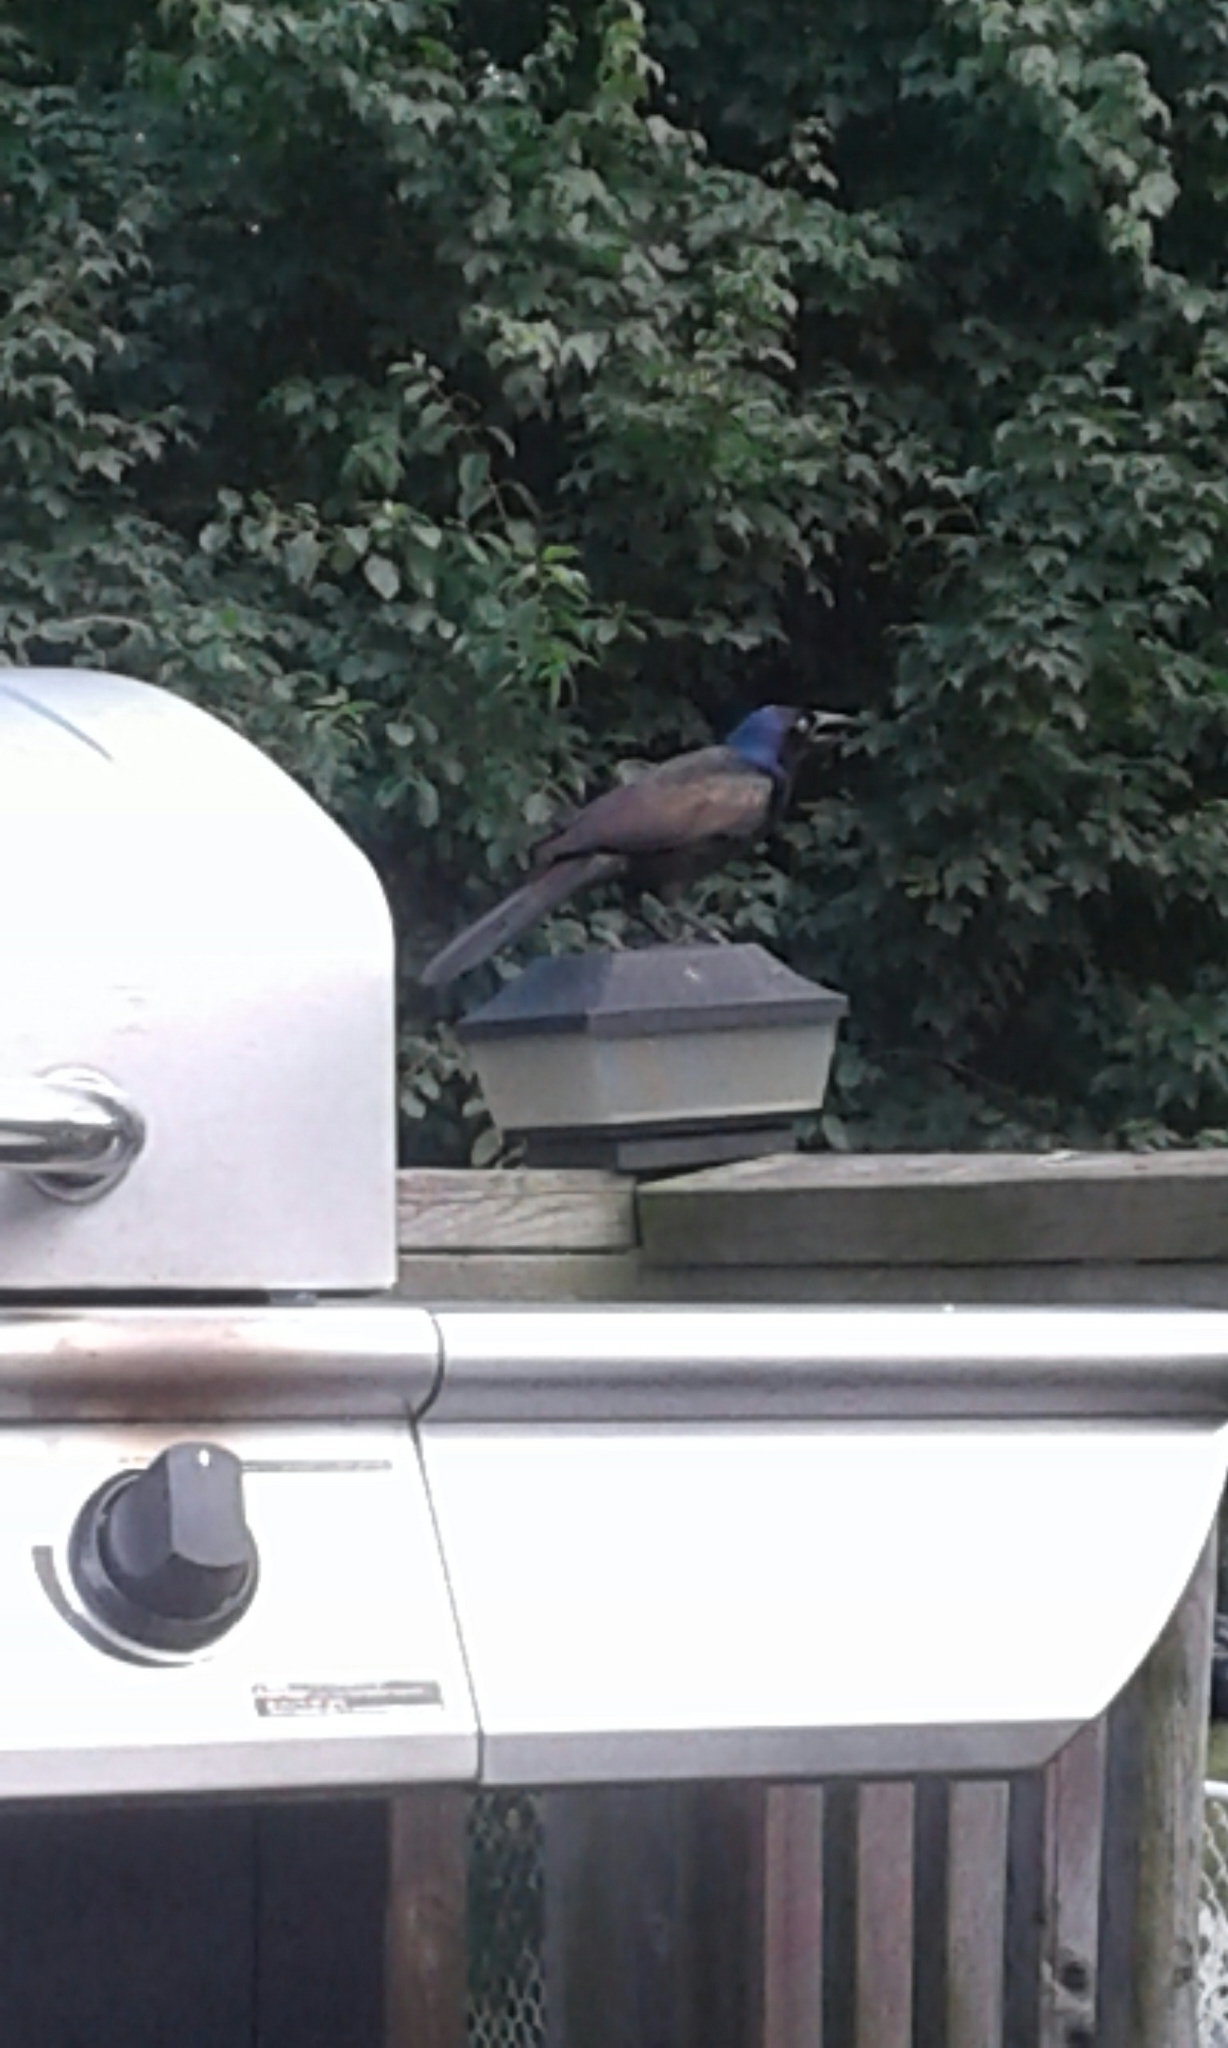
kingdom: Animalia
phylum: Chordata
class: Aves
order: Passeriformes
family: Icteridae
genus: Quiscalus
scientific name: Quiscalus quiscula
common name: Common grackle
